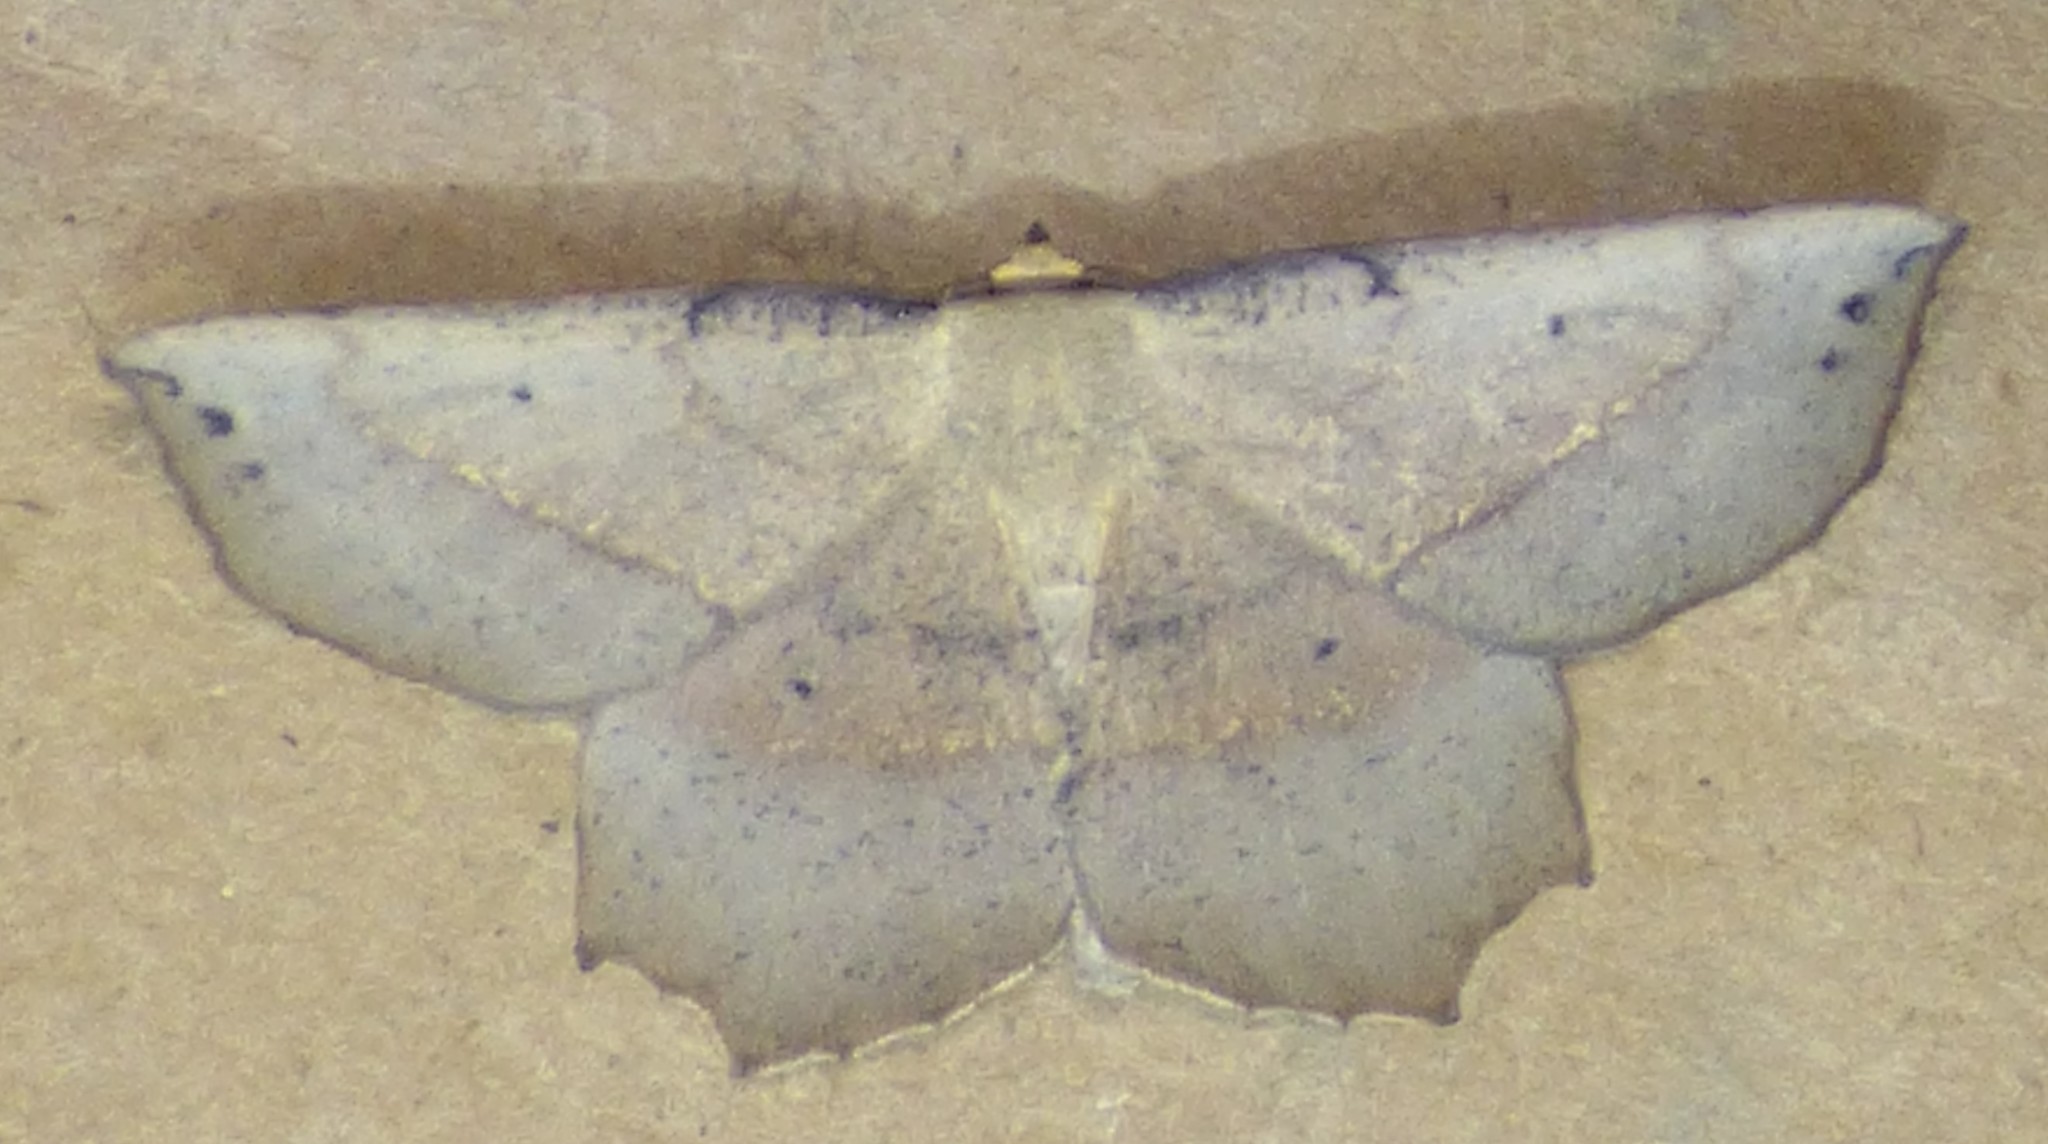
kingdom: Animalia
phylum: Arthropoda
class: Insecta
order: Lepidoptera
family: Geometridae
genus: Euchlaena
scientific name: Euchlaena obtusaria
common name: Obtuse euchlaena moth
